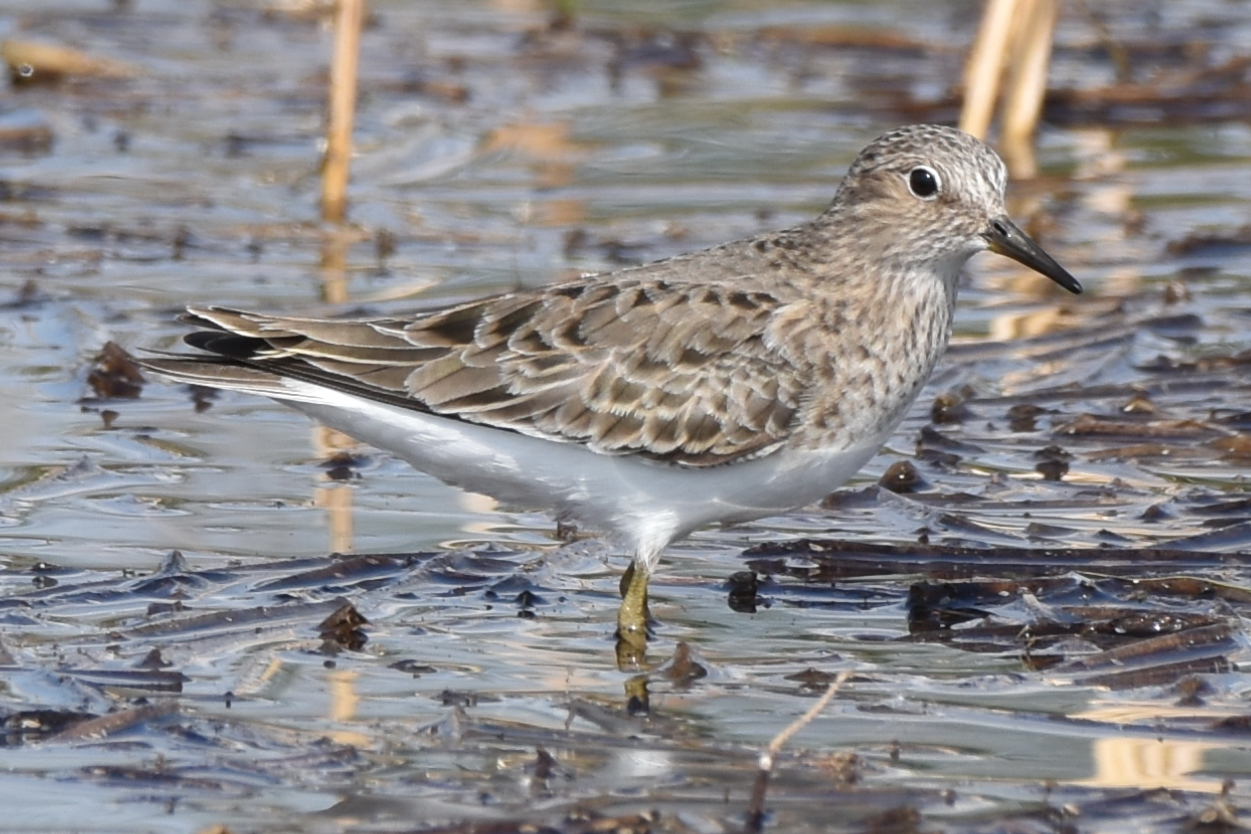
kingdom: Animalia
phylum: Chordata
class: Aves
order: Charadriiformes
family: Scolopacidae
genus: Calidris
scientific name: Calidris temminckii
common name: Temminck's stint
